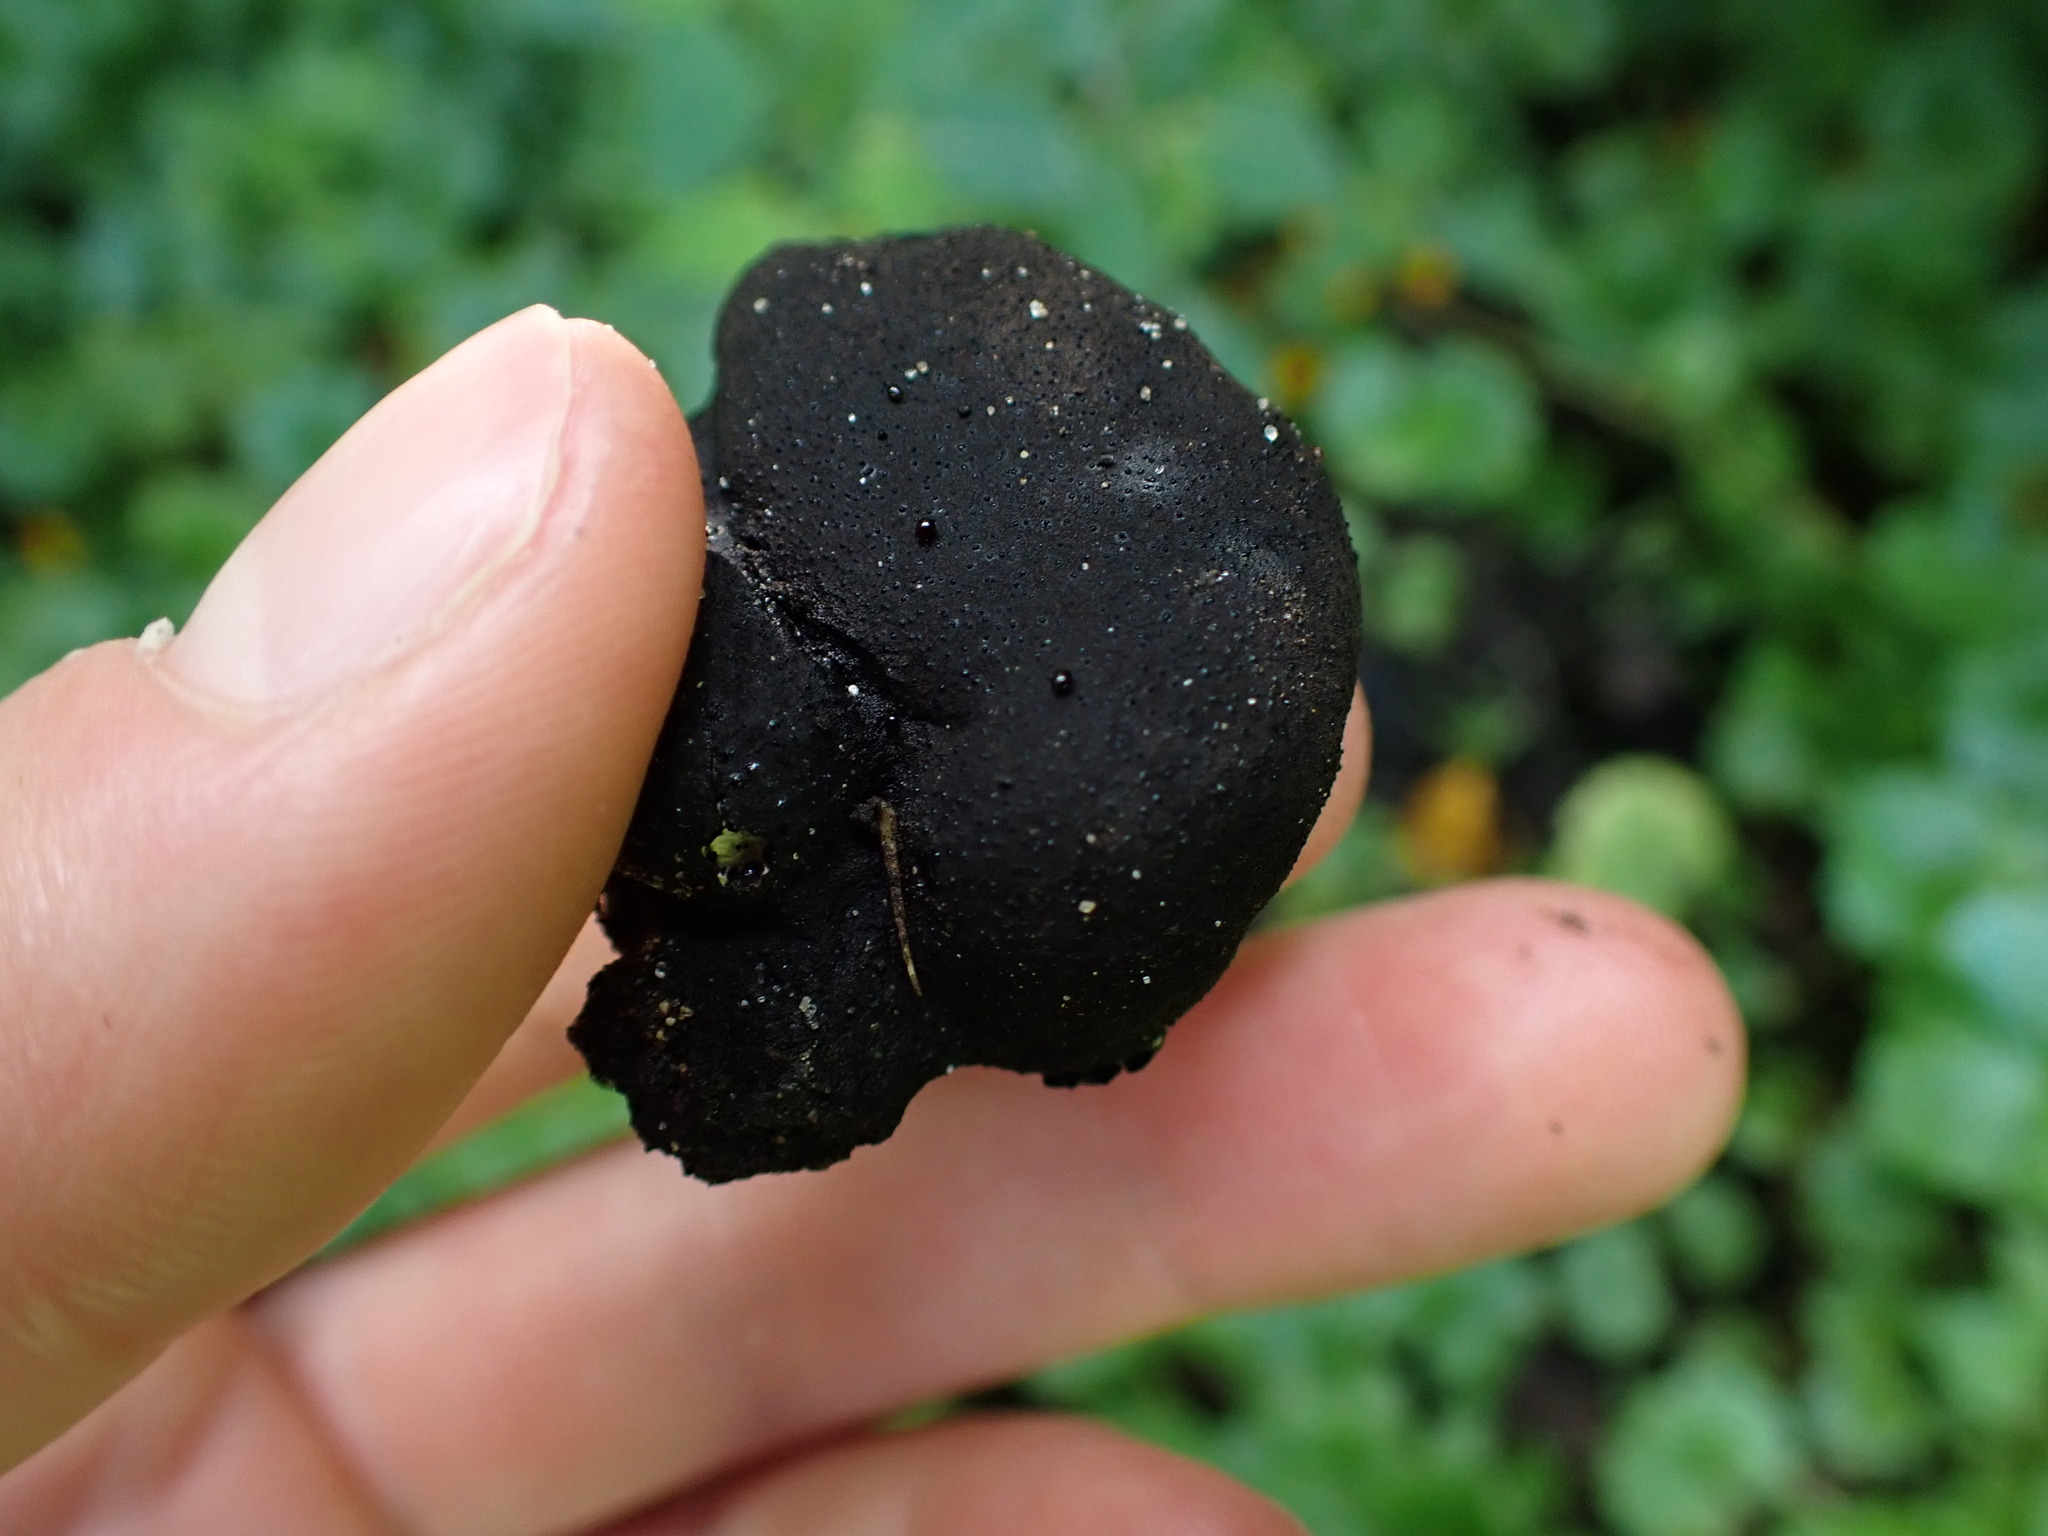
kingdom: Fungi
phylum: Ascomycota
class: Sordariomycetes
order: Xylariales
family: Xylariaceae
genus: Xylaria
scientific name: Xylaria polymorpha
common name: Dead man's fingers
